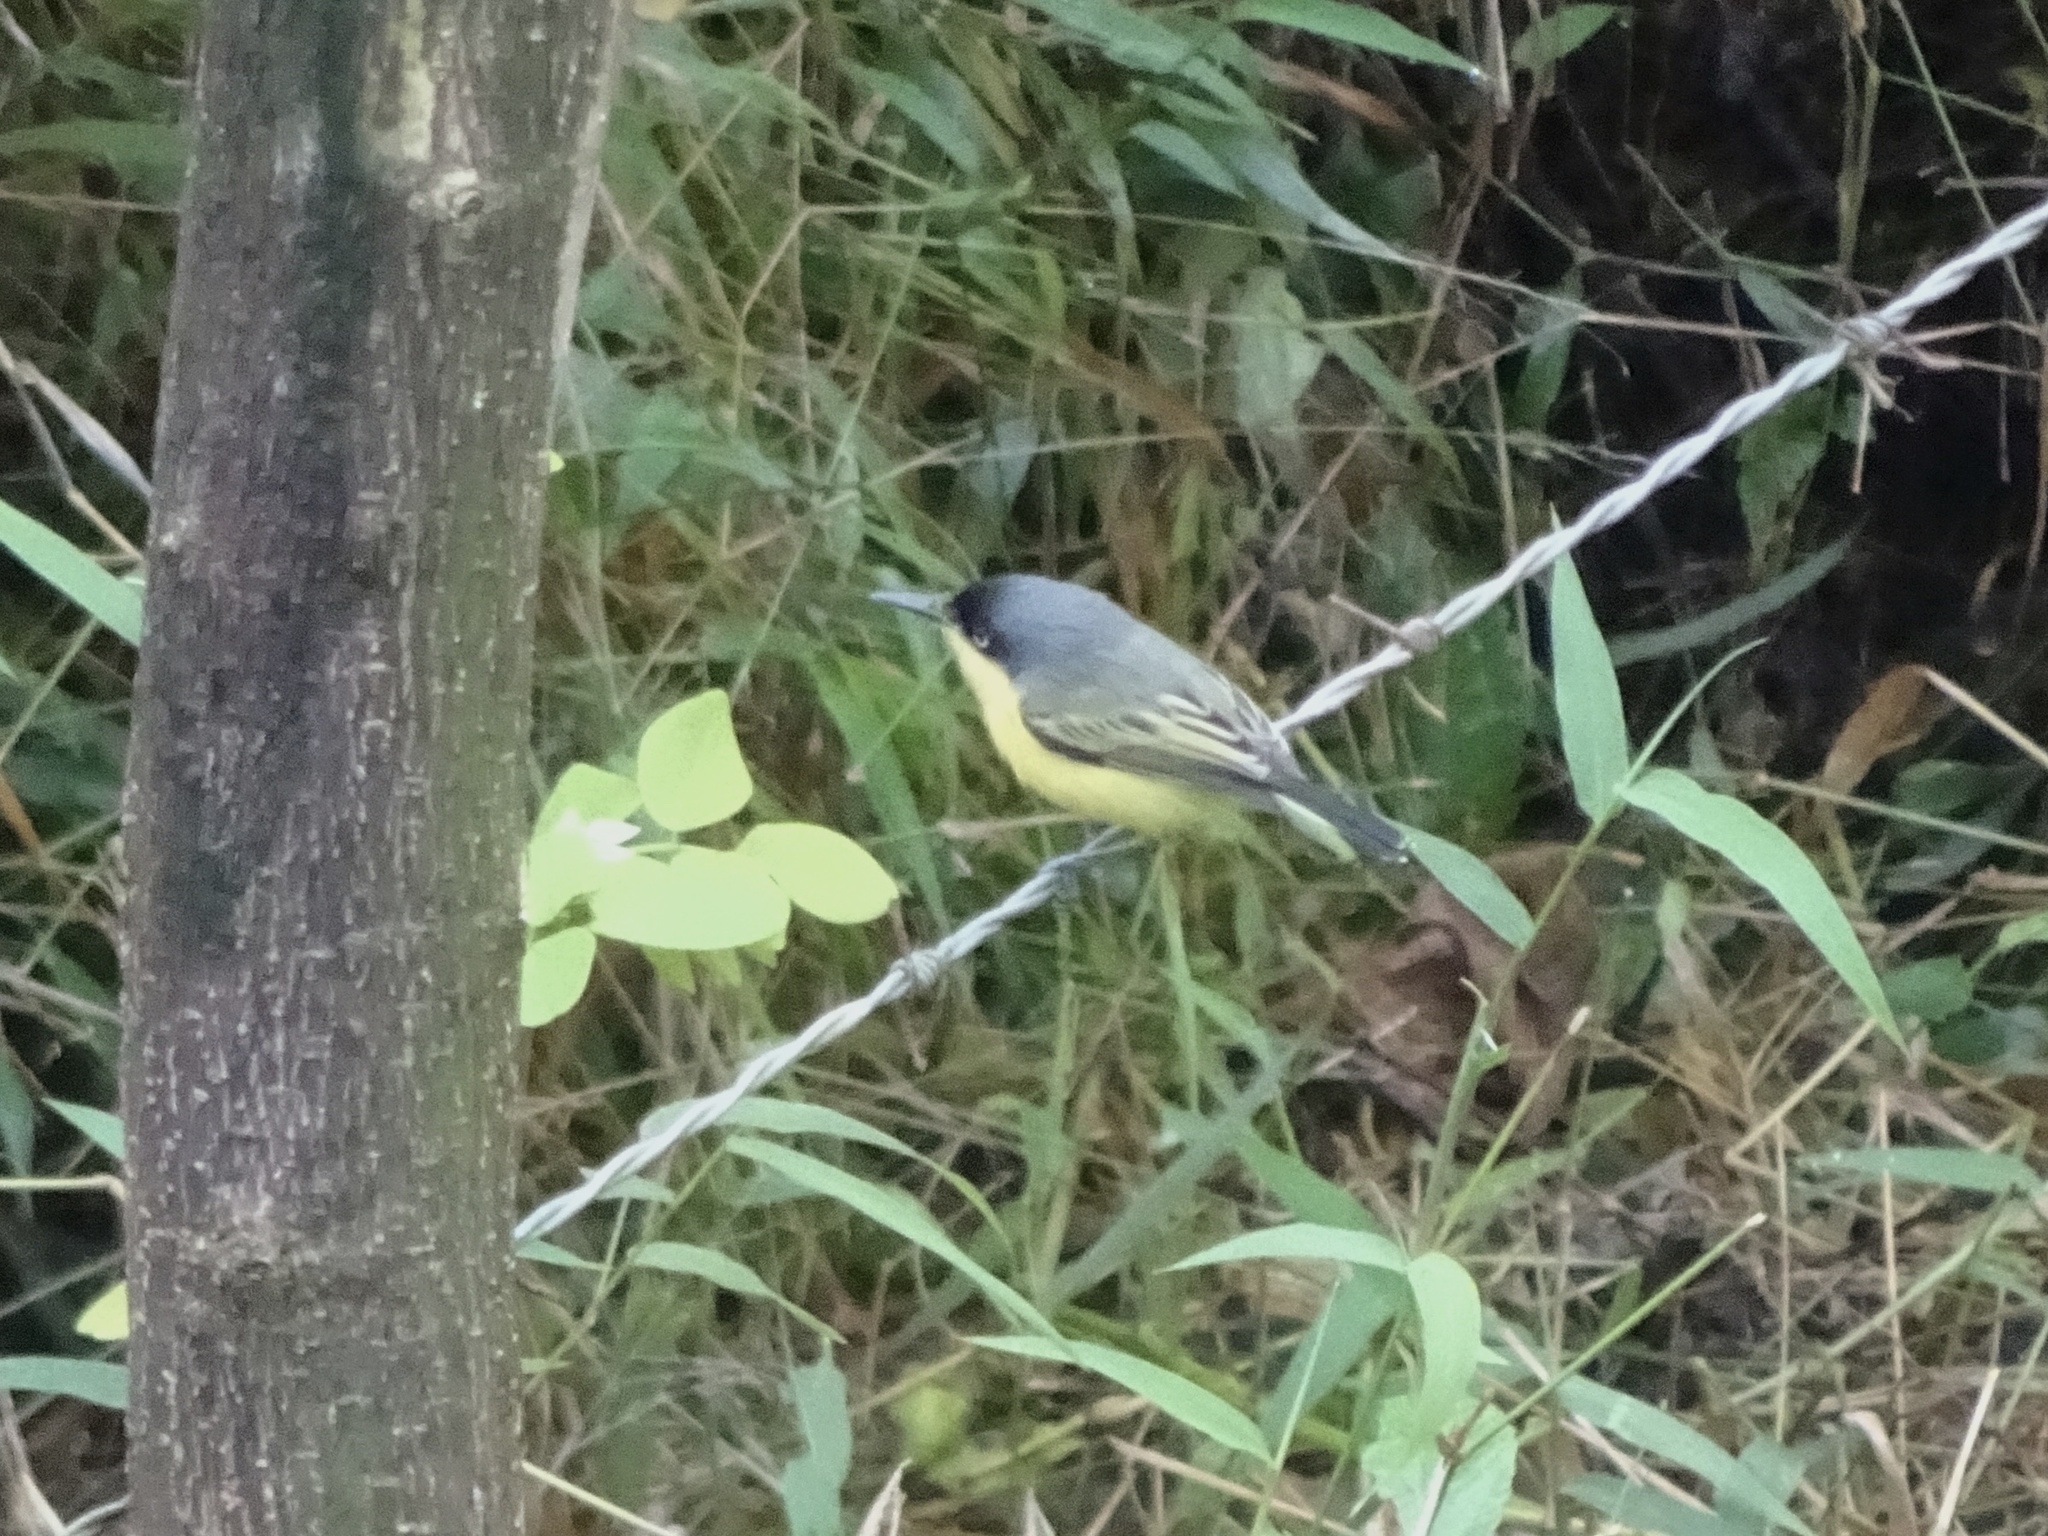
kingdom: Animalia
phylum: Chordata
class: Aves
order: Passeriformes
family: Tyrannidae
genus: Todirostrum
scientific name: Todirostrum cinereum
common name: Common tody-flycatcher
